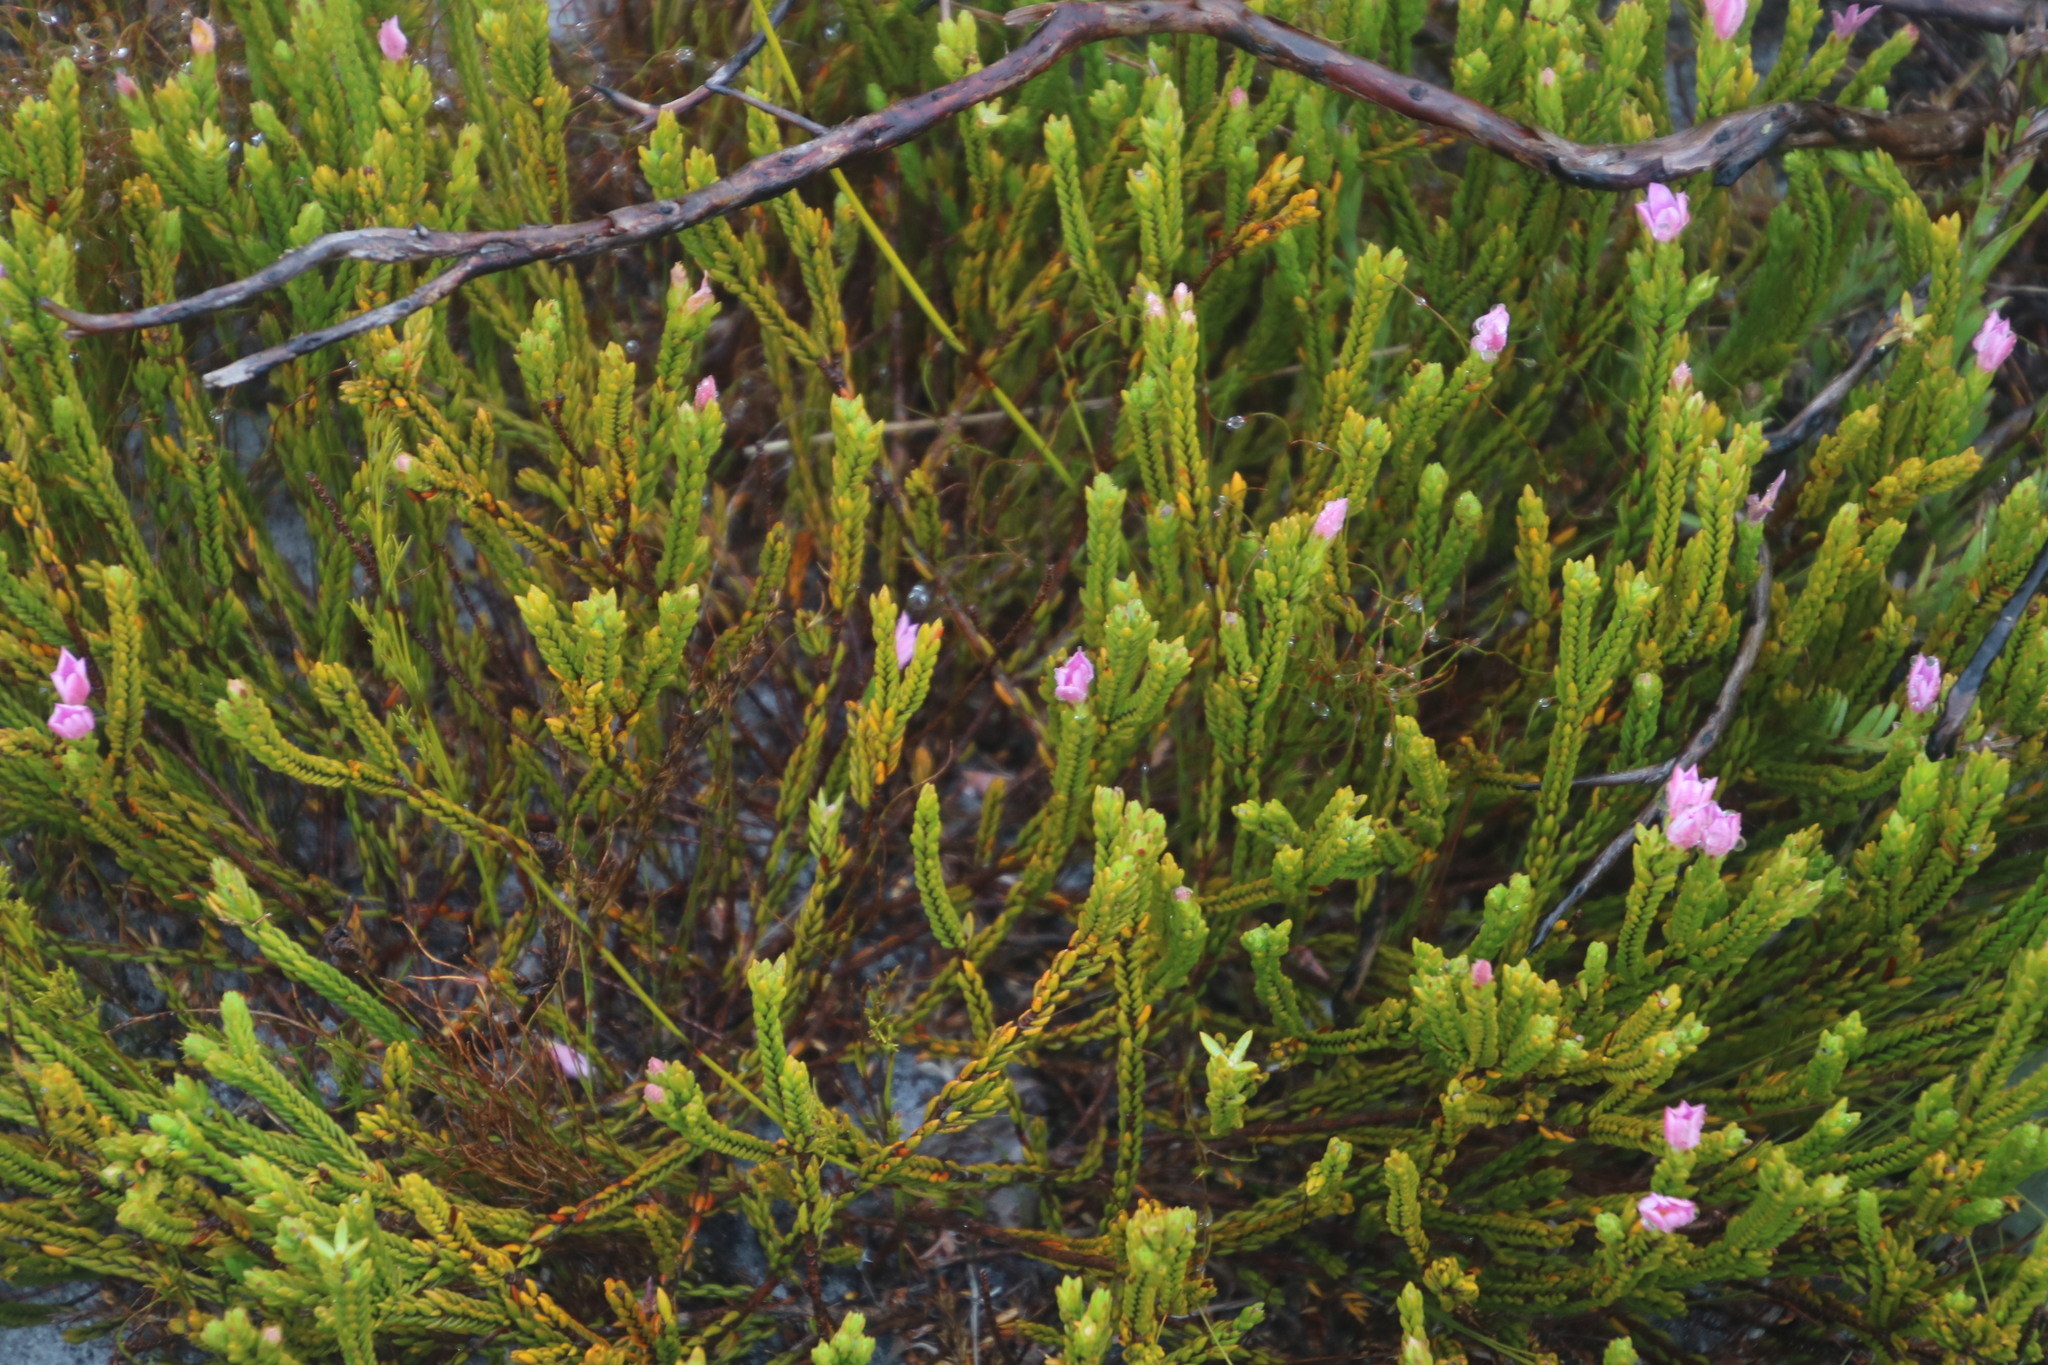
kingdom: Plantae
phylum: Tracheophyta
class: Magnoliopsida
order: Malvales
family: Thymelaeaceae
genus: Lachnaea
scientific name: Lachnaea grandiflora
